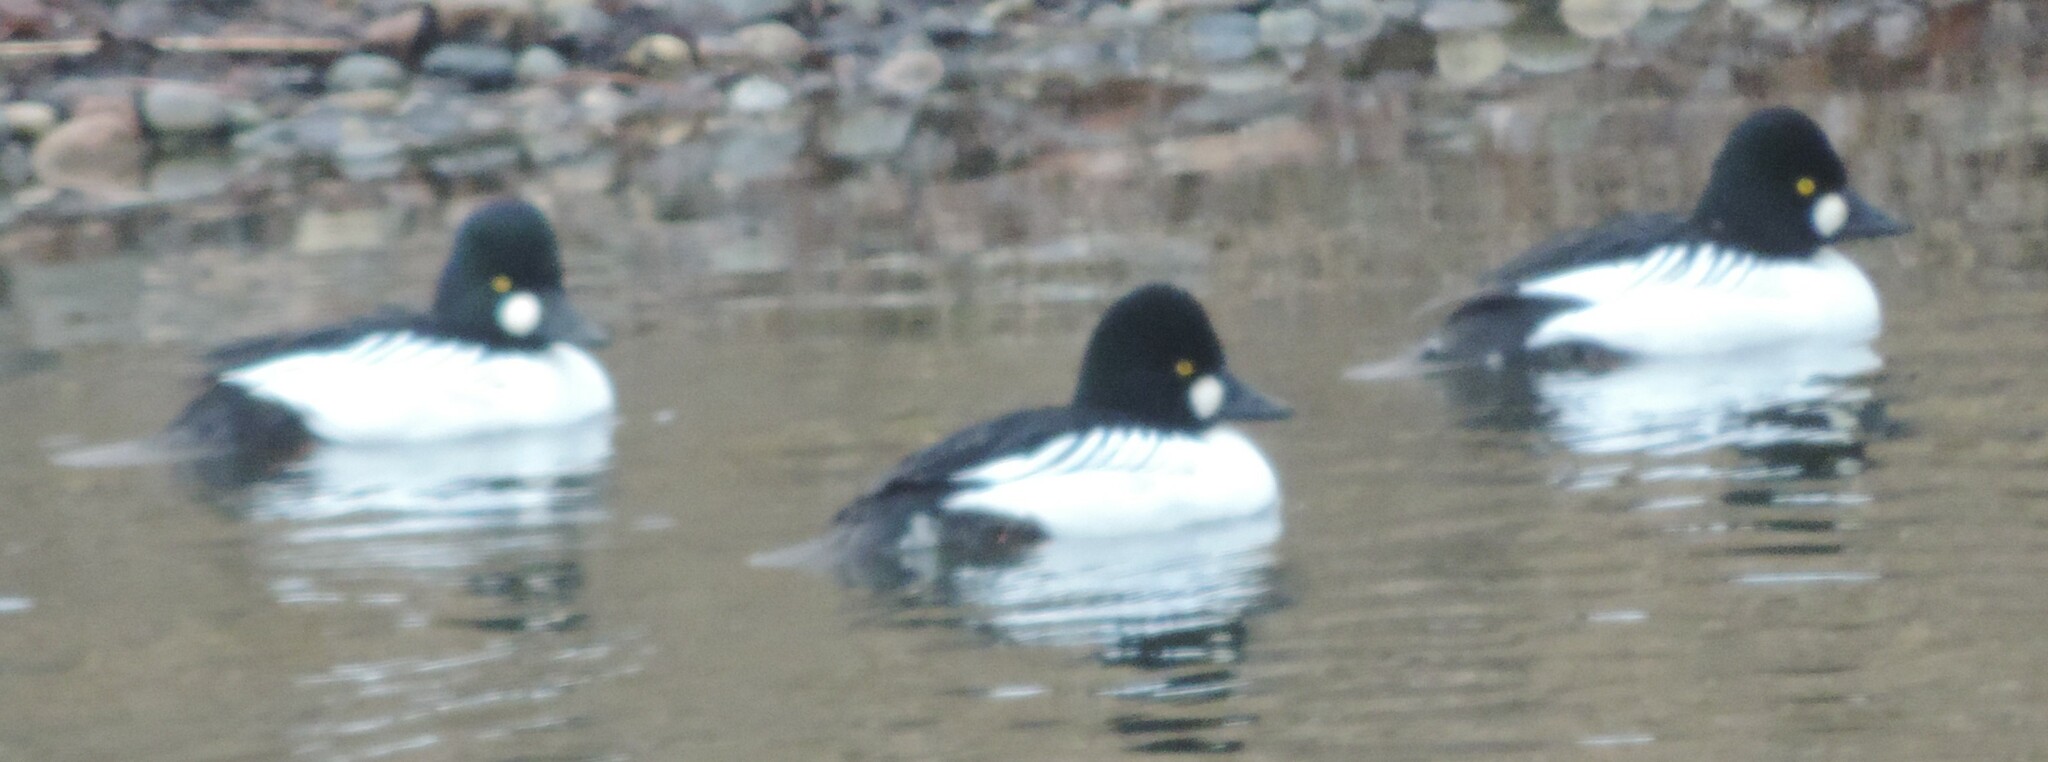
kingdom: Animalia
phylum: Chordata
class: Aves
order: Anseriformes
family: Anatidae
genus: Bucephala
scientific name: Bucephala clangula
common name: Common goldeneye
